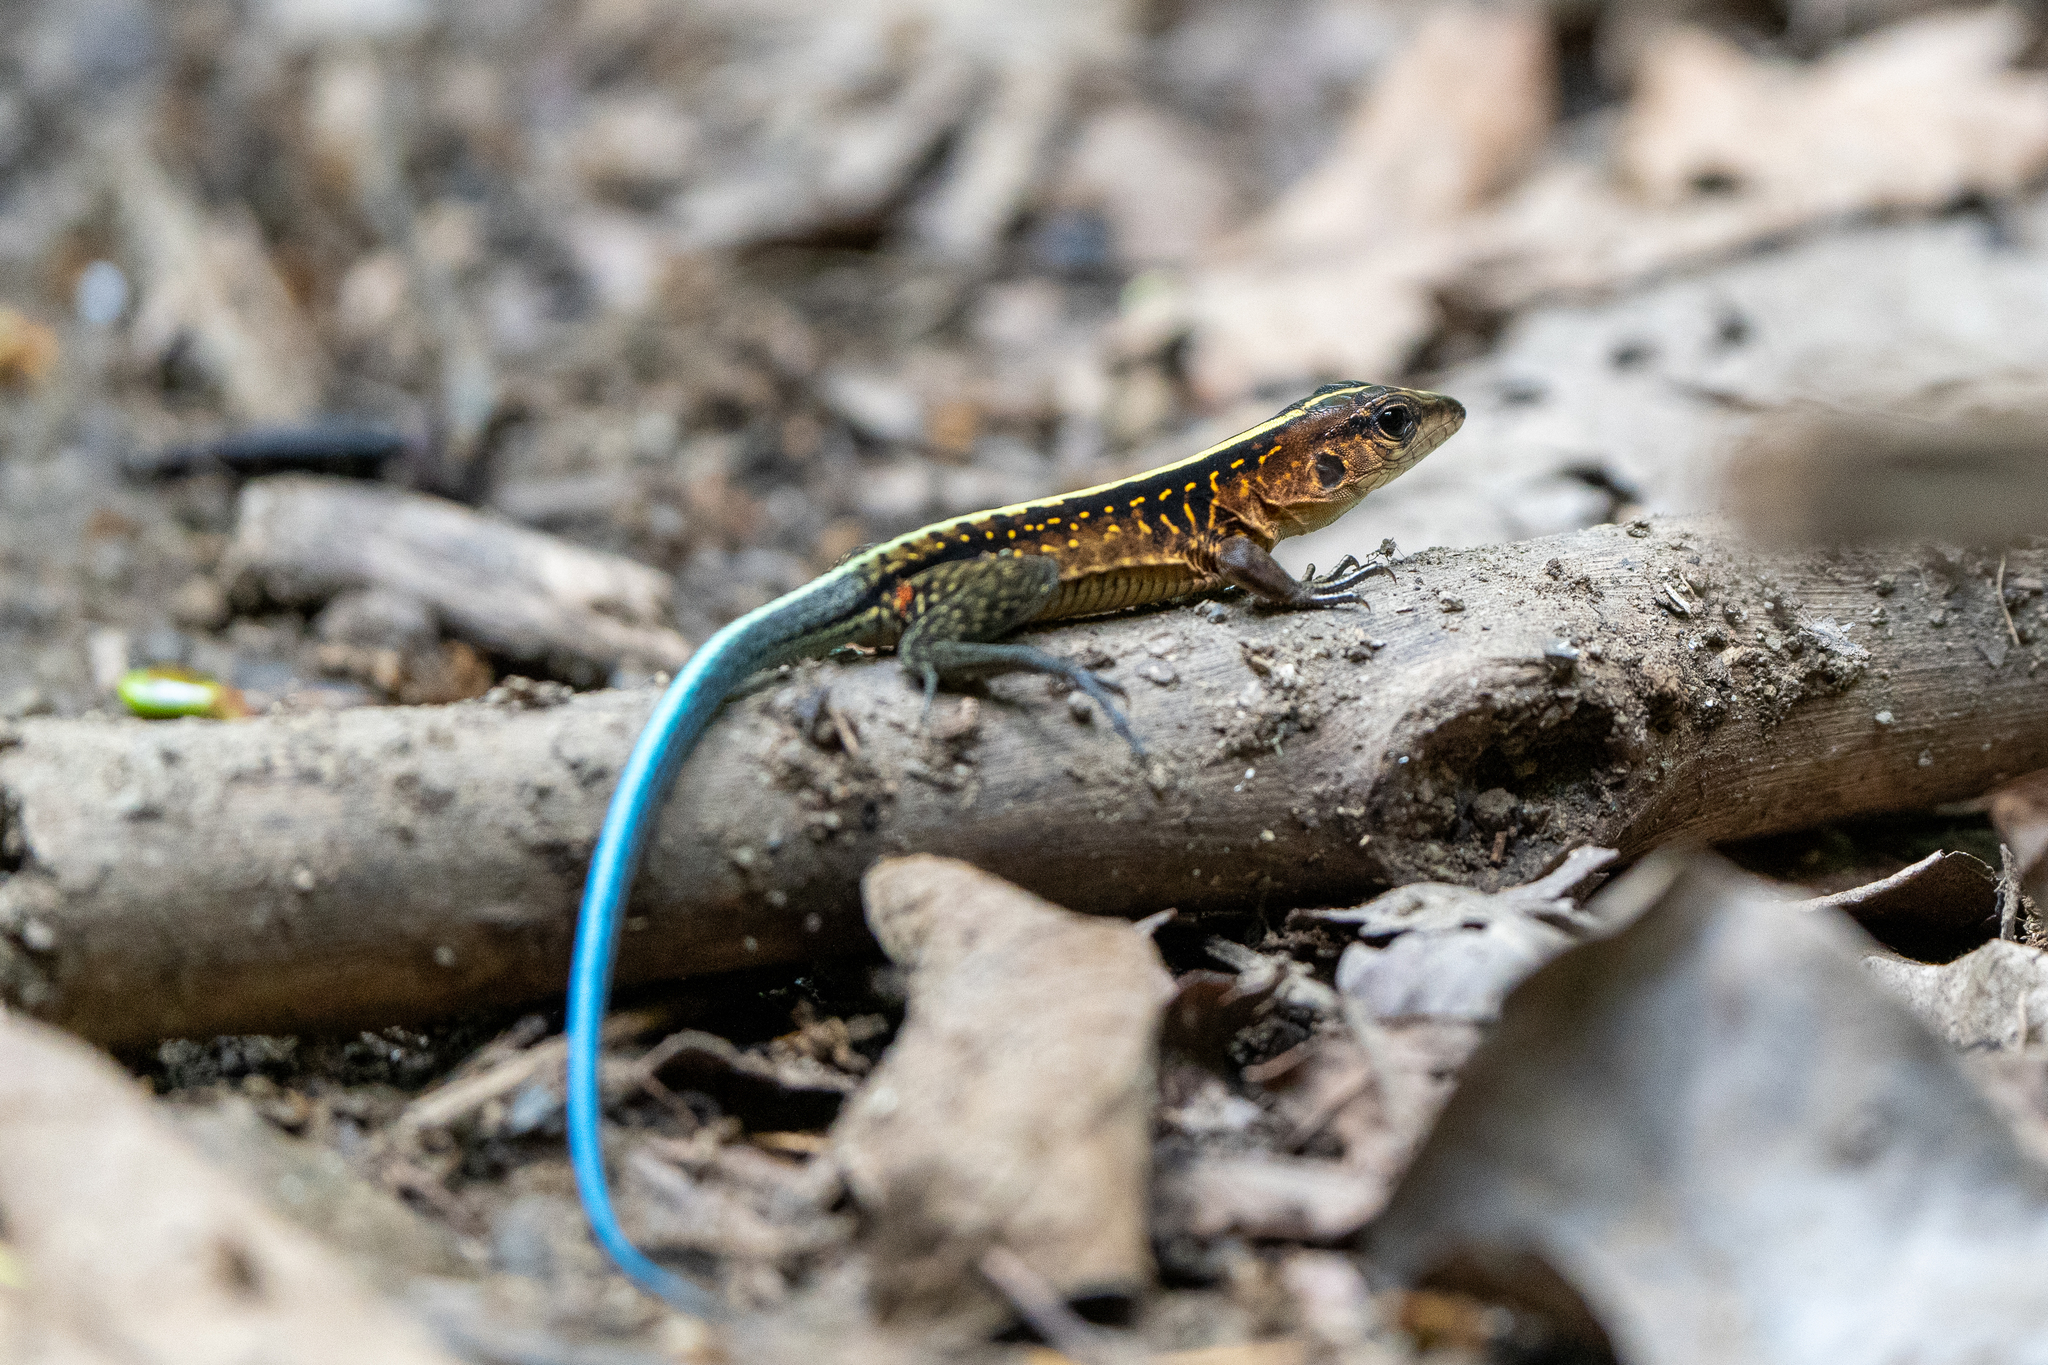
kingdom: Animalia
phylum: Chordata
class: Squamata
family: Teiidae
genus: Holcosus
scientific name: Holcosus festivus
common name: Middle american ameiva
